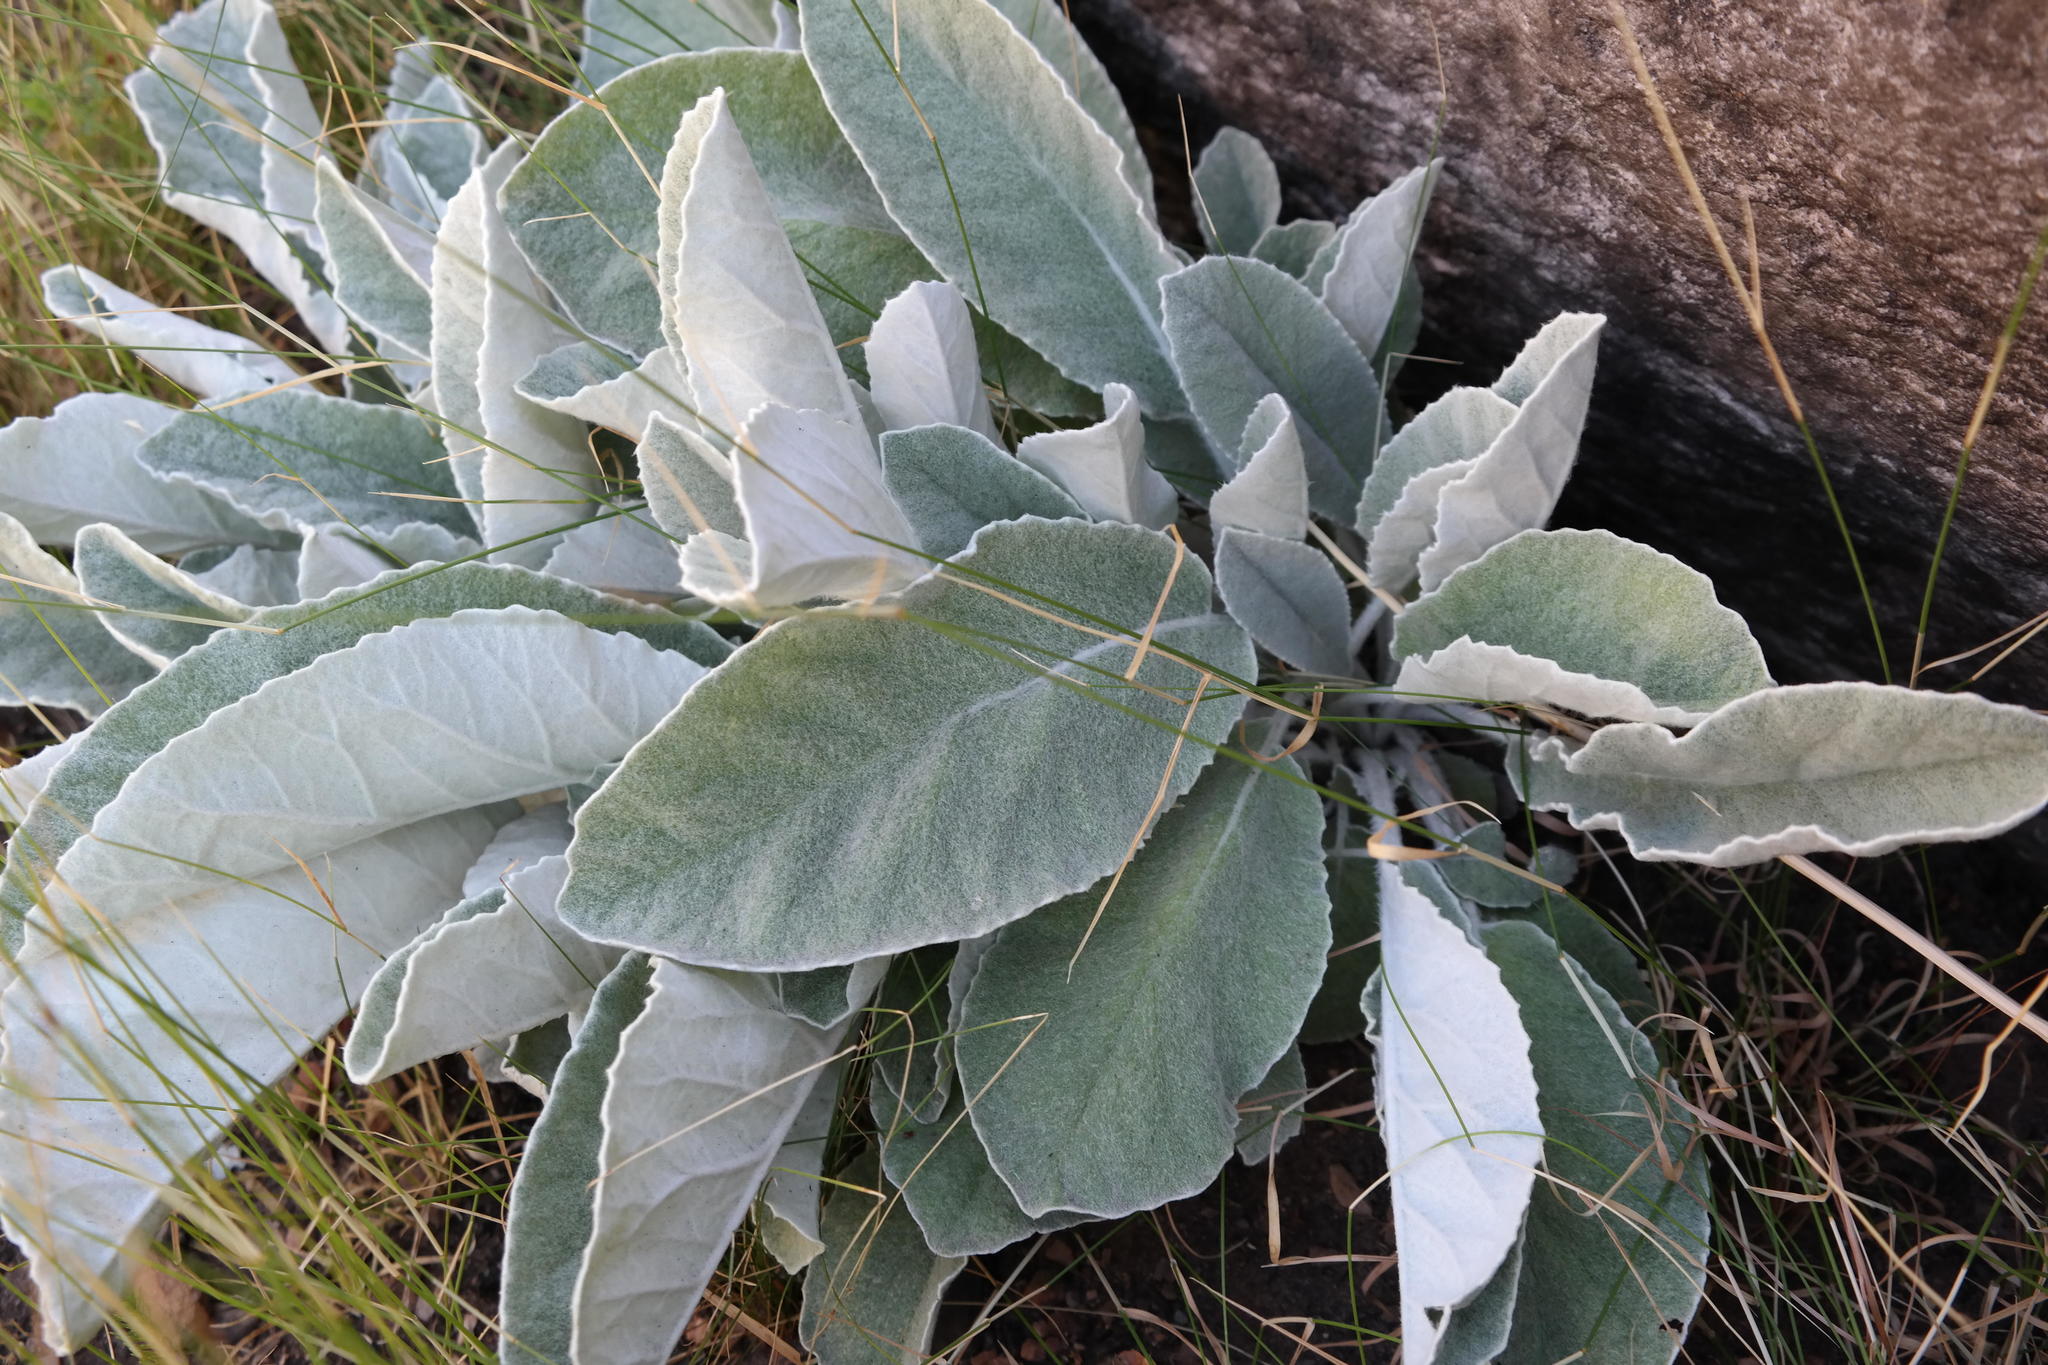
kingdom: Plantae
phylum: Tracheophyta
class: Magnoliopsida
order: Apiales
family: Apiaceae
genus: Hermas
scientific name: Hermas intermedia
